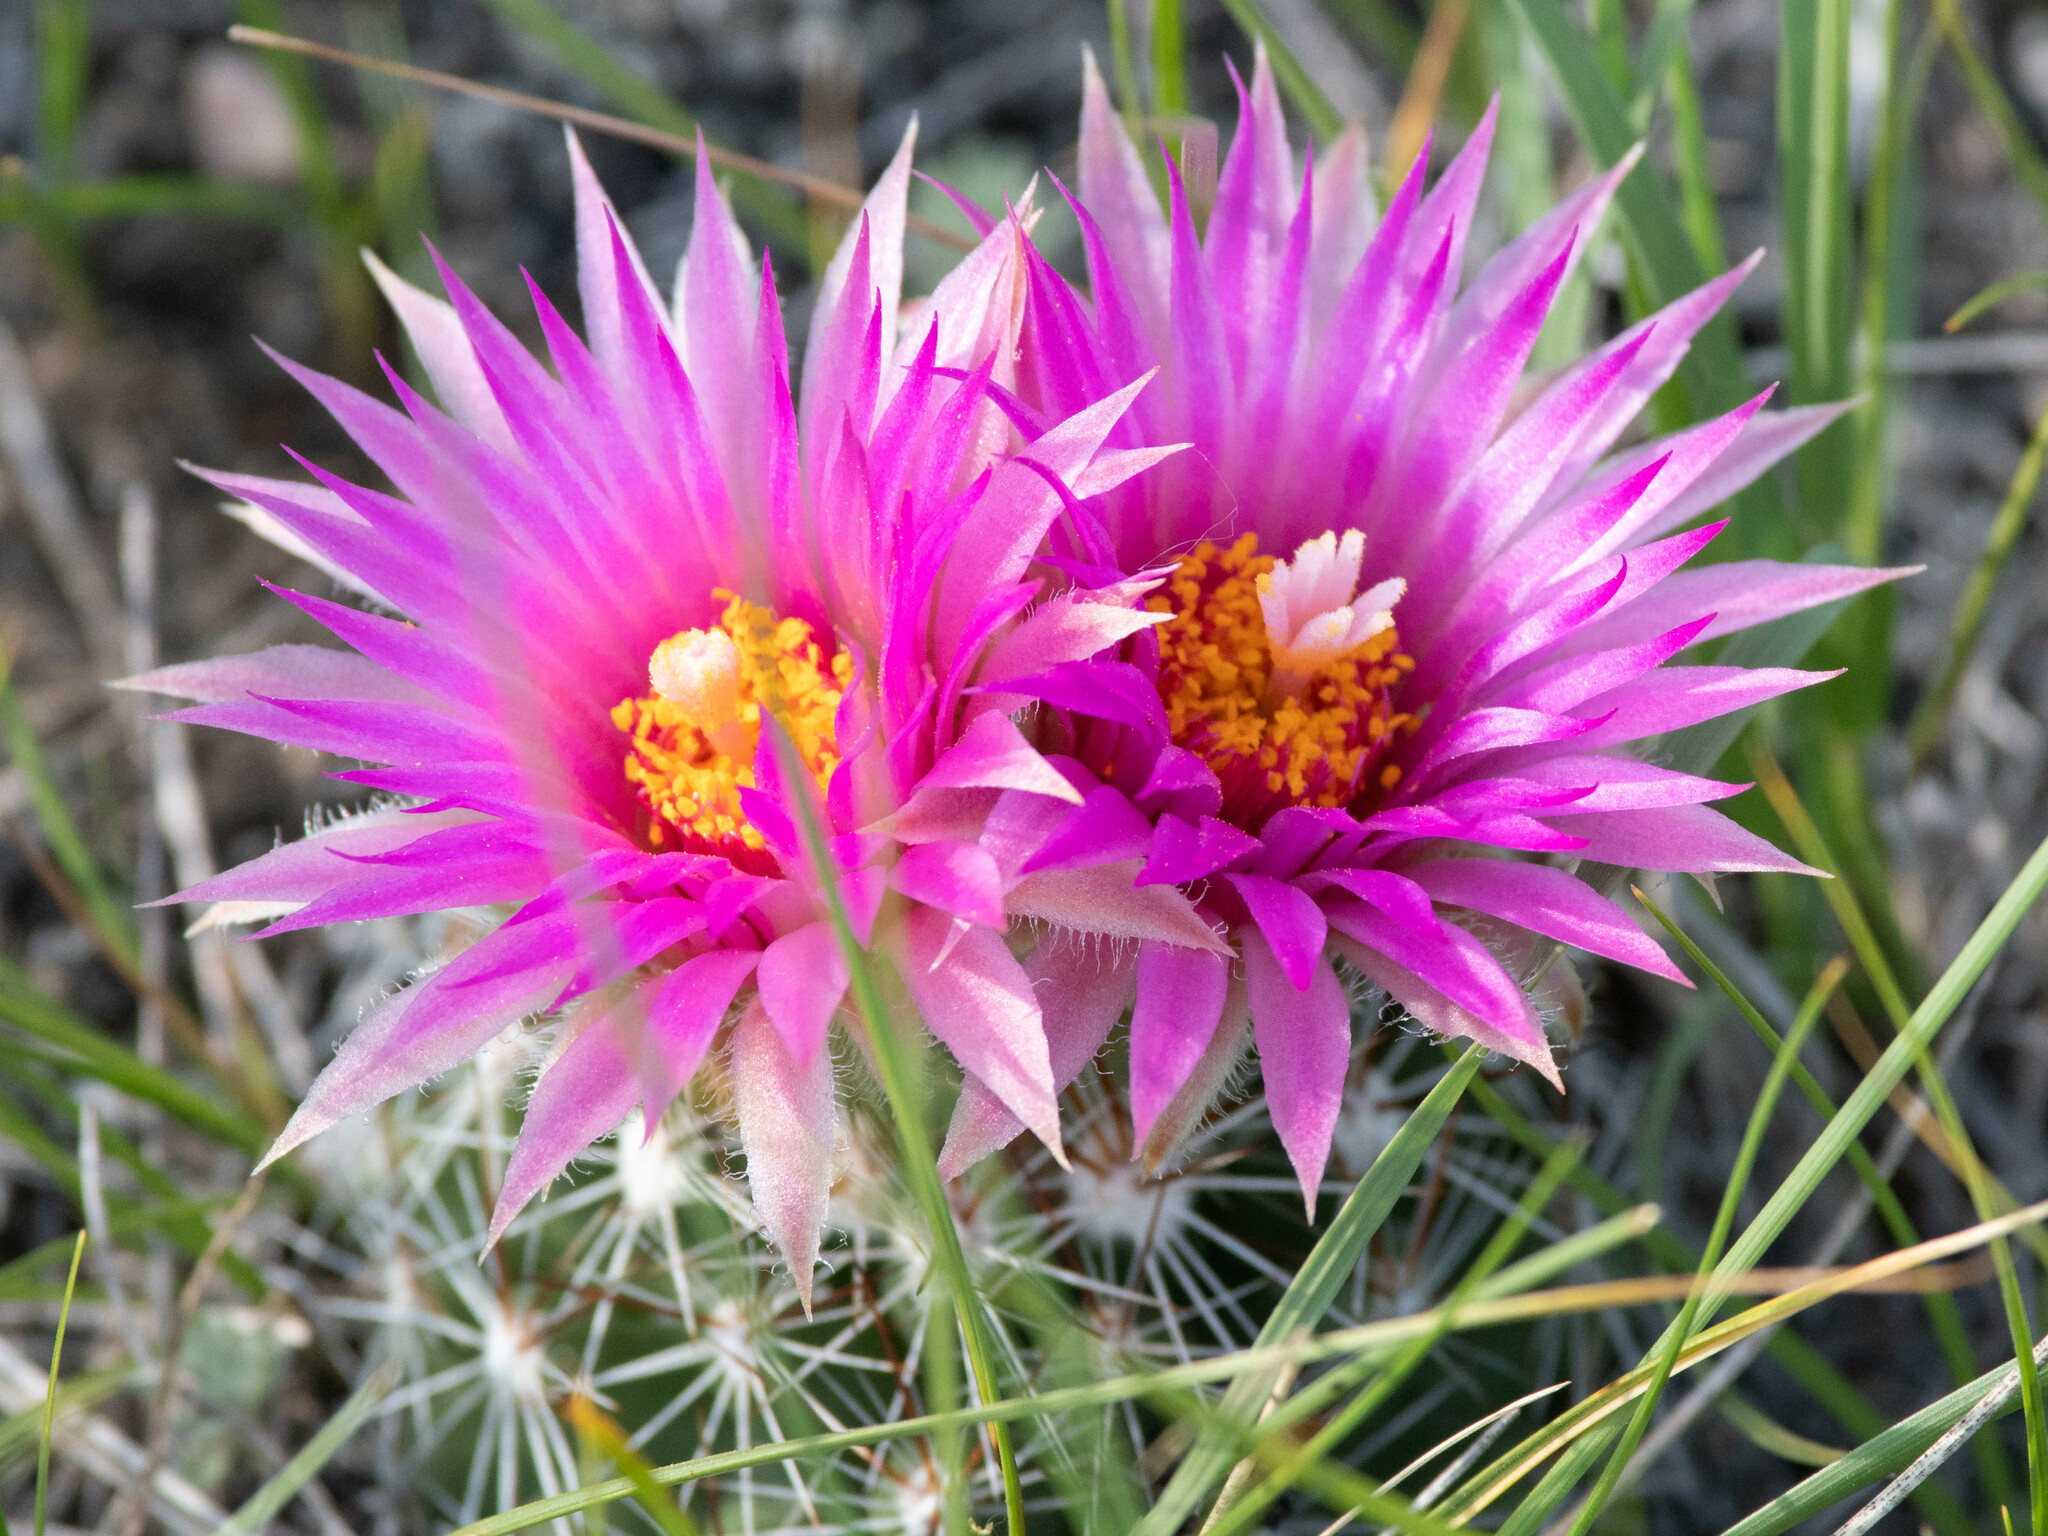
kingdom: Plantae
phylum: Tracheophyta
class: Magnoliopsida
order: Caryophyllales
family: Cactaceae
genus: Pelecyphora
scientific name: Pelecyphora vivipara
